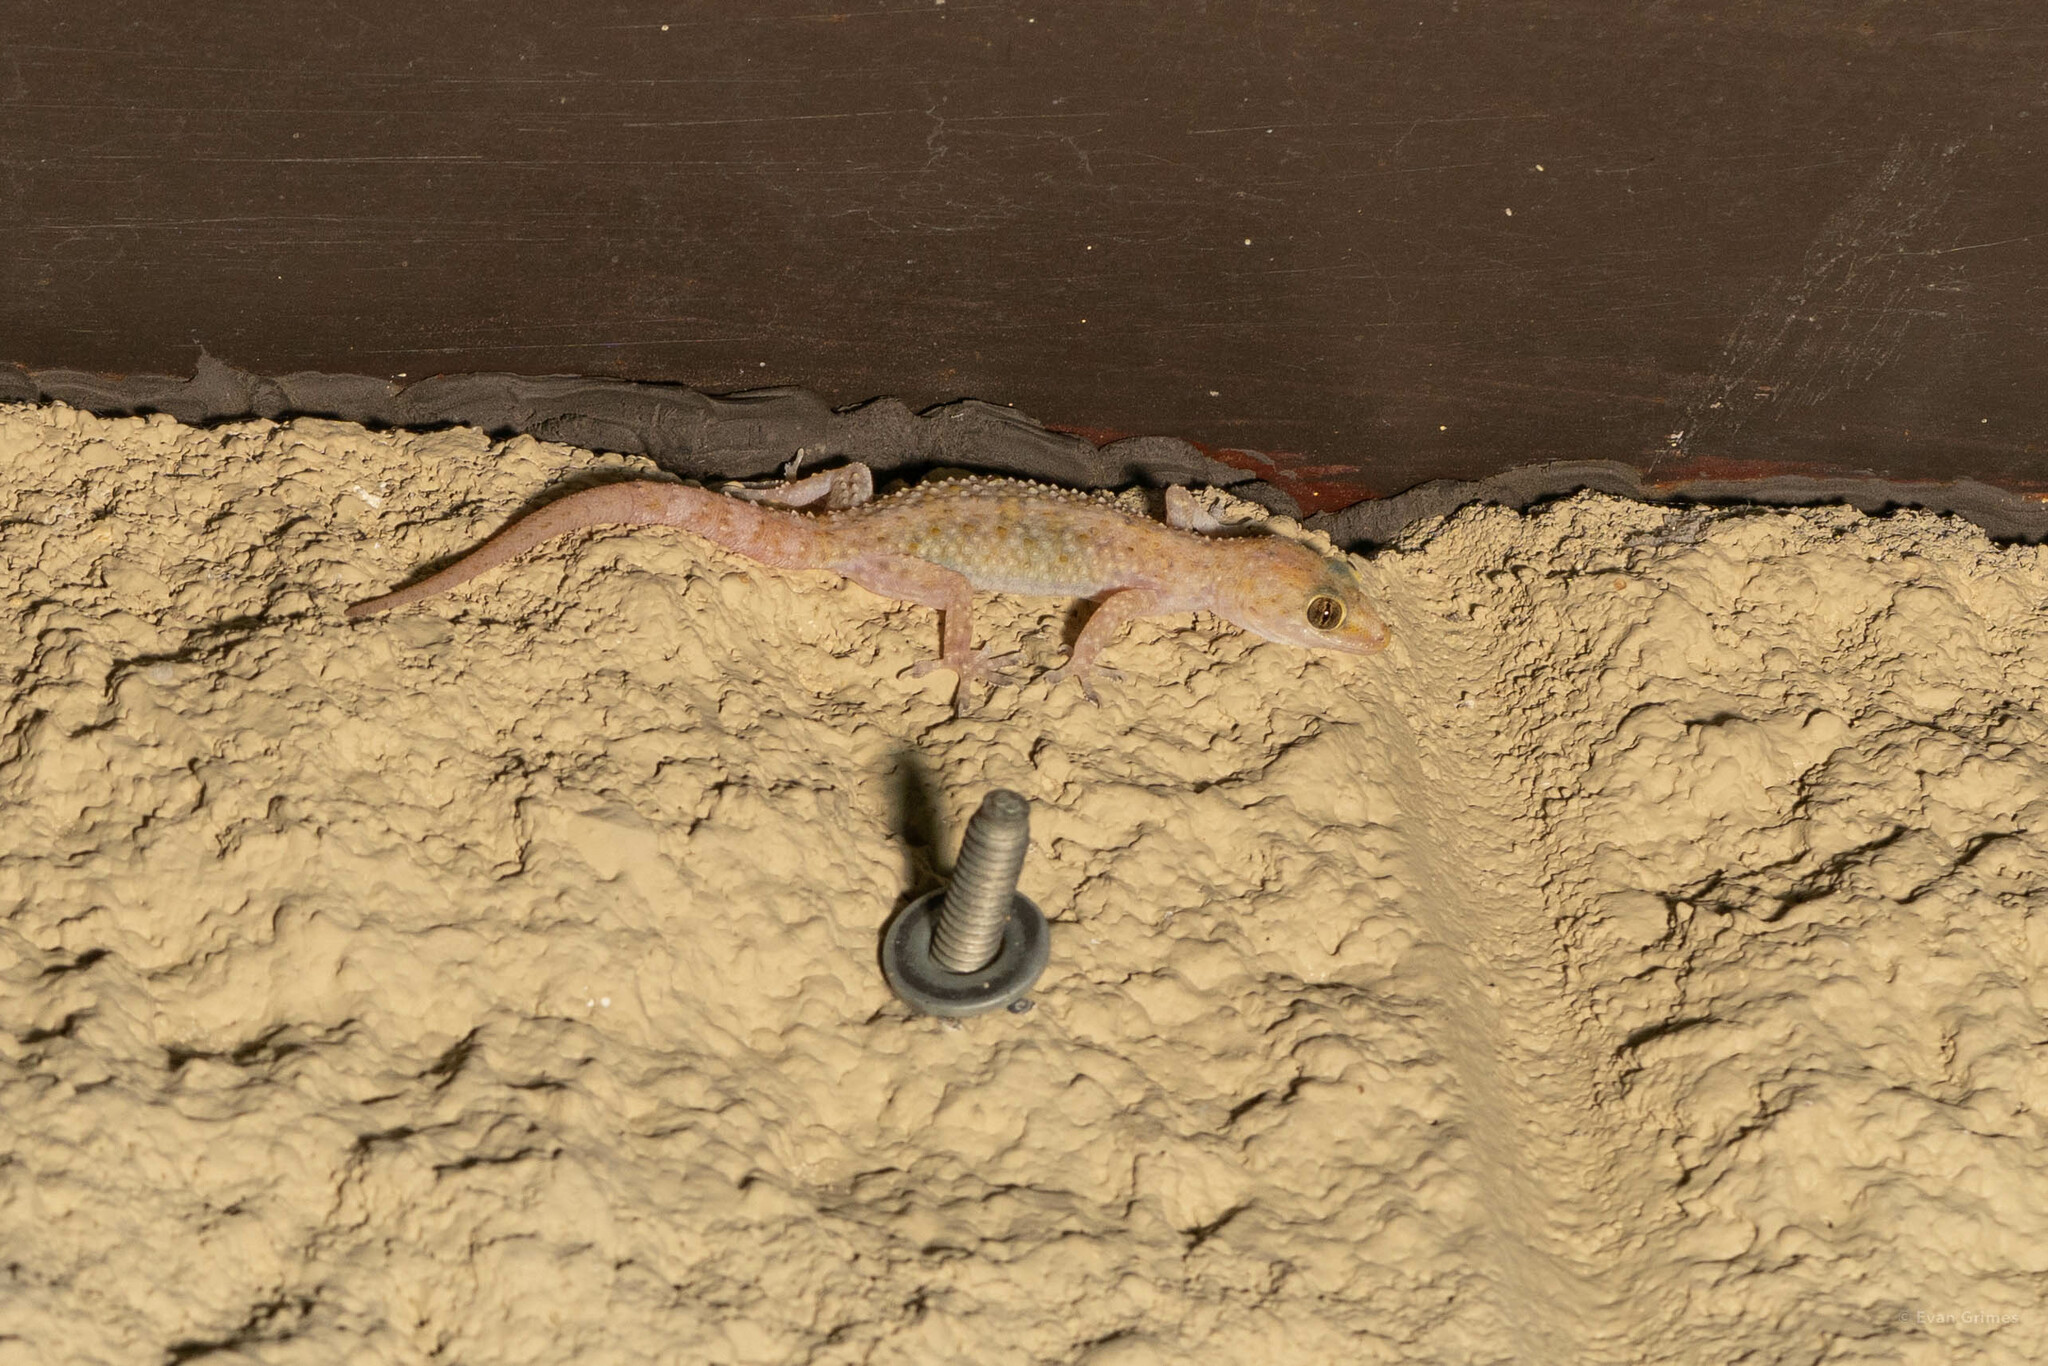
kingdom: Animalia
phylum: Chordata
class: Squamata
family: Gekkonidae
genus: Hemidactylus
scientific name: Hemidactylus turcicus
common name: Turkish gecko
